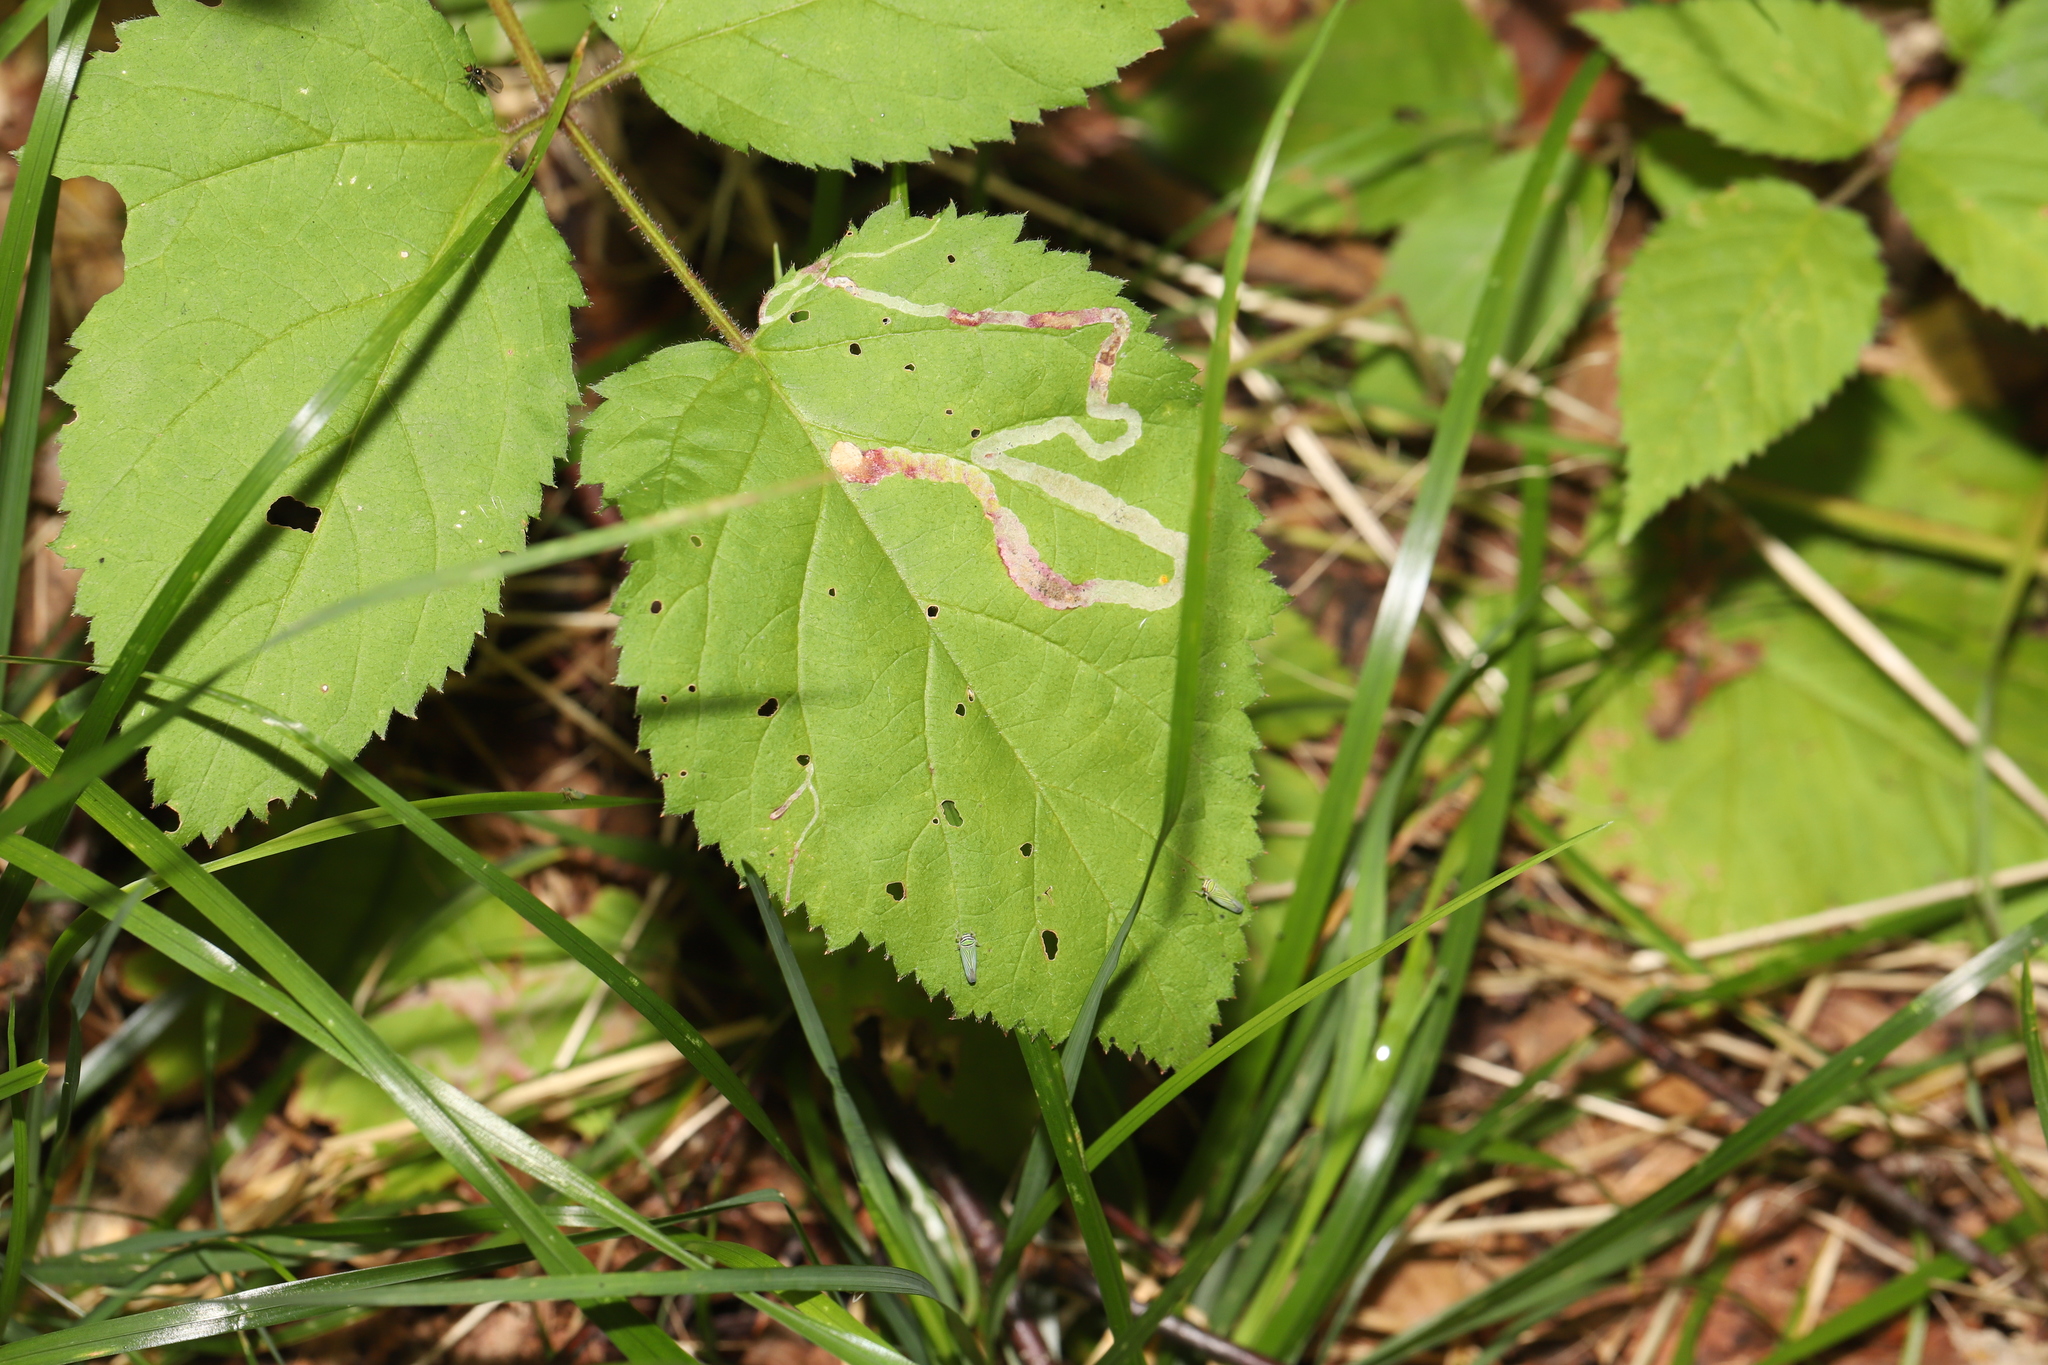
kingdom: Animalia
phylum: Arthropoda
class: Insecta
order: Diptera
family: Agromyzidae
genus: Agromyza
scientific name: Agromyza vockerothi
